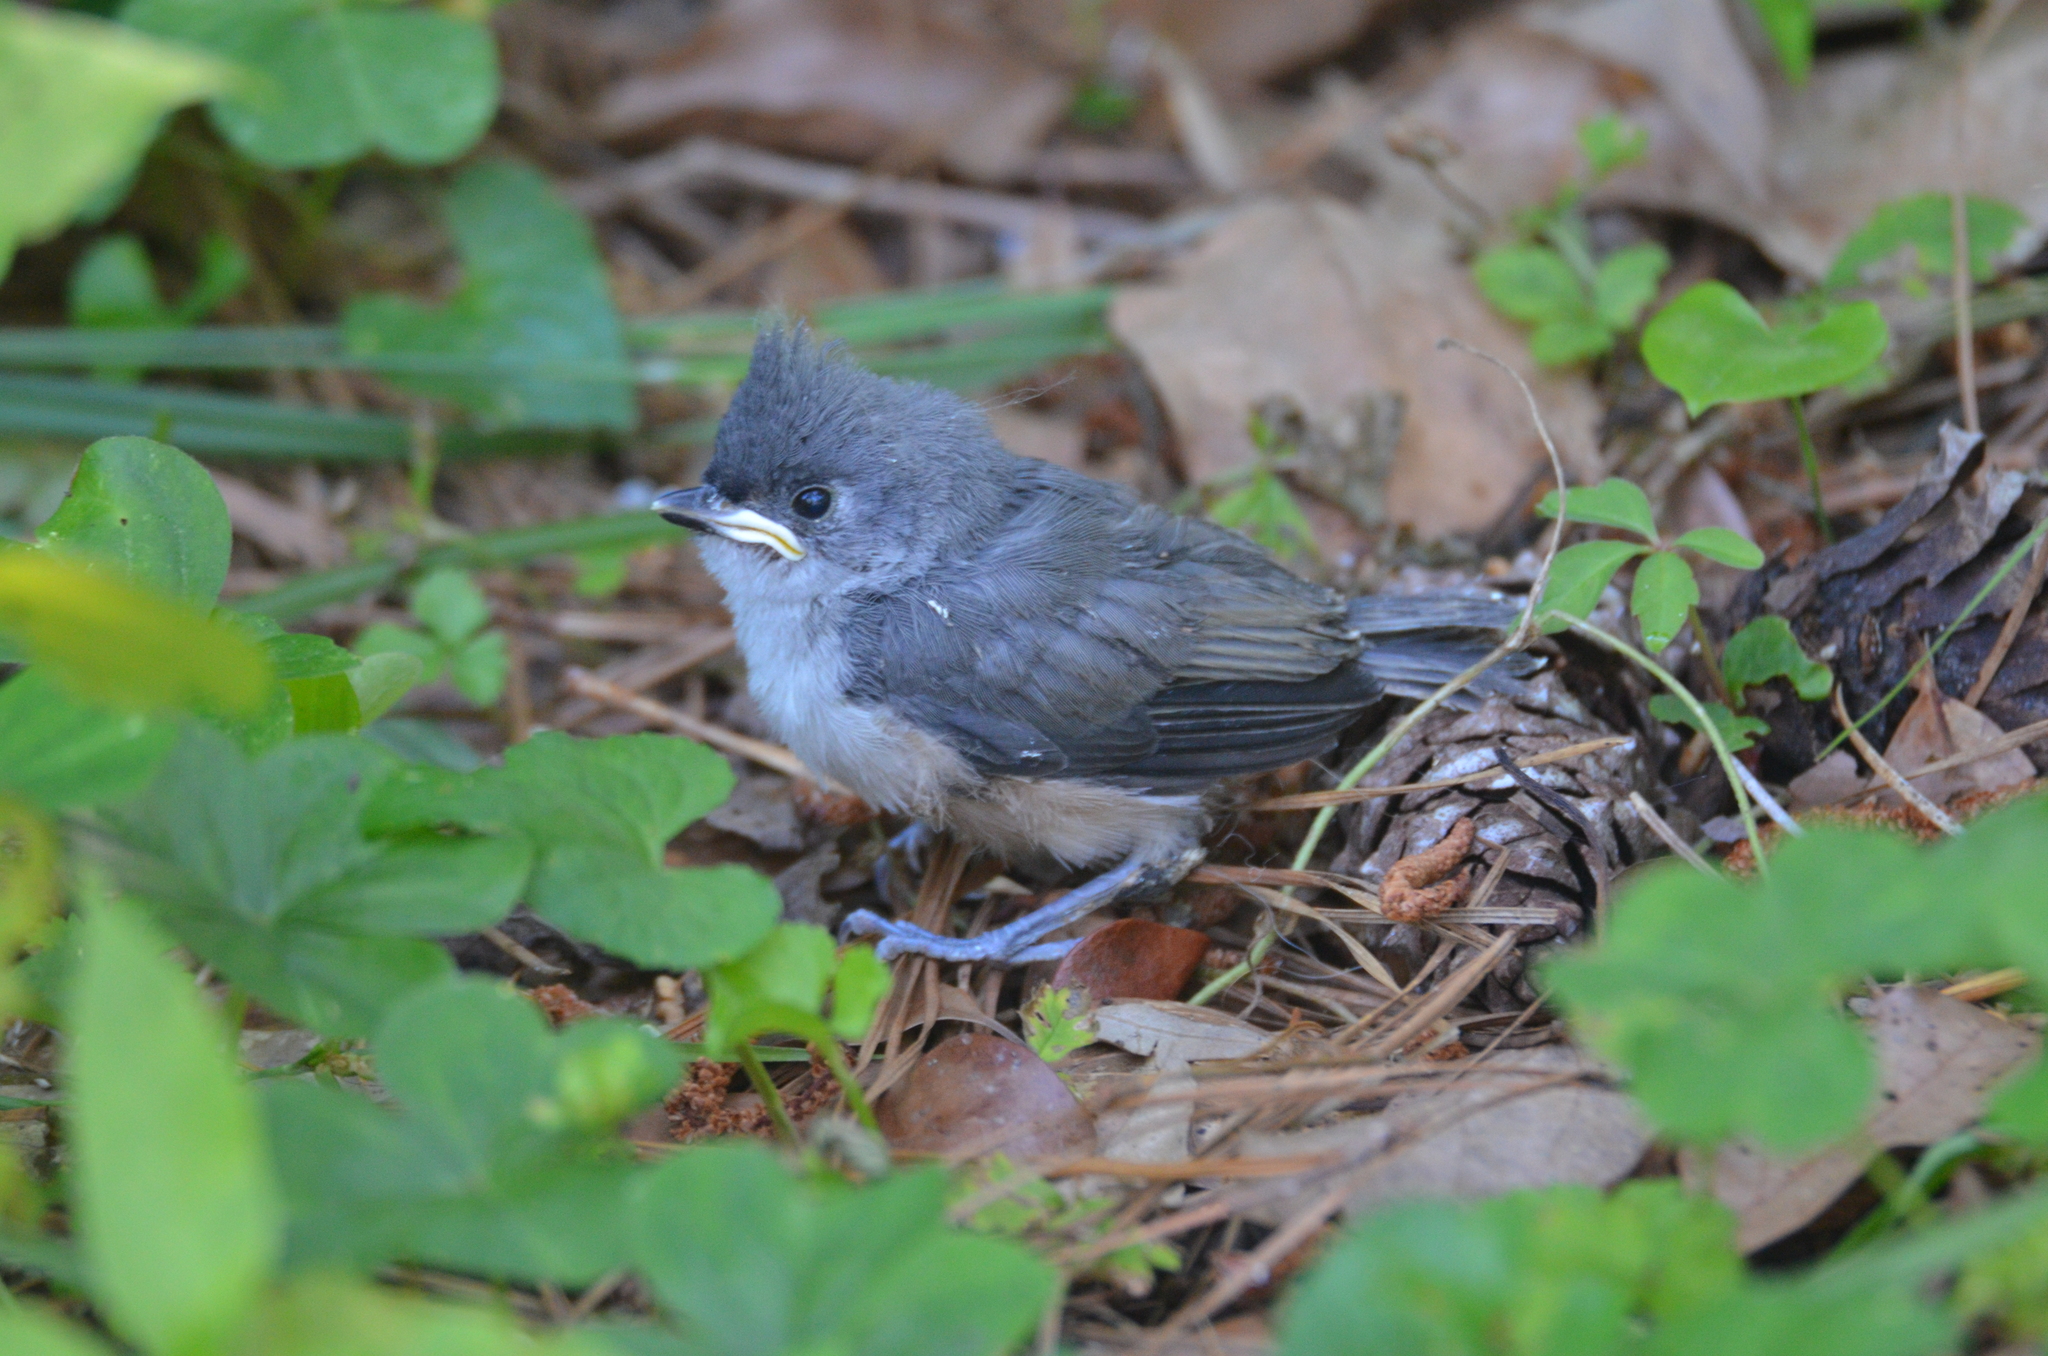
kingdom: Animalia
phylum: Chordata
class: Aves
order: Passeriformes
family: Paridae
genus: Baeolophus
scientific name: Baeolophus bicolor
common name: Tufted titmouse
